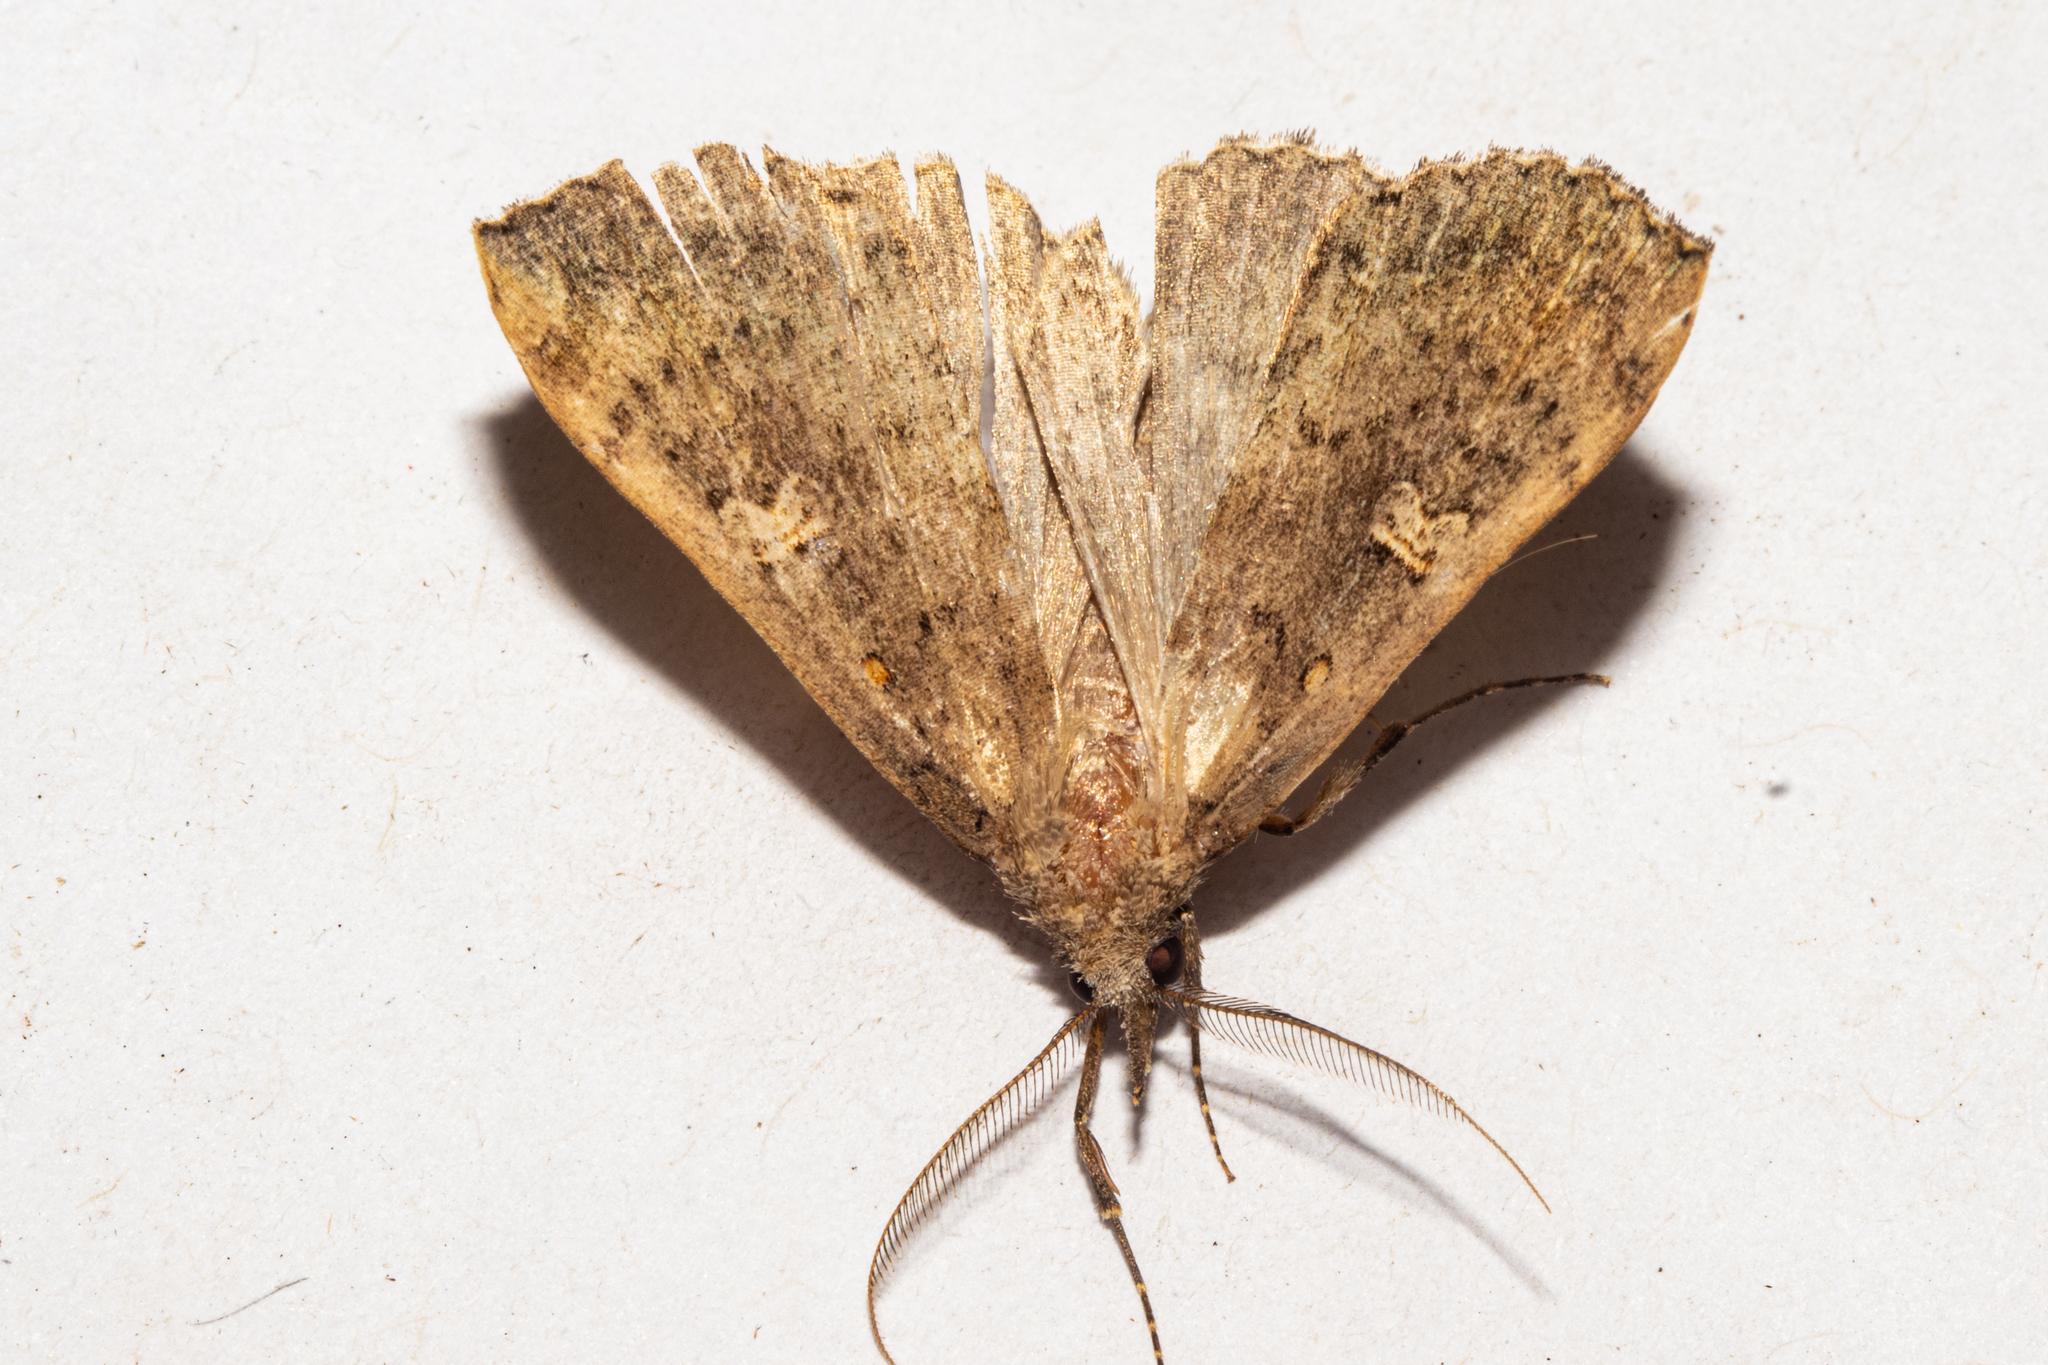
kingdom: Animalia
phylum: Arthropoda
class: Insecta
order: Lepidoptera
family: Erebidae
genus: Rhapsa
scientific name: Rhapsa scotosialis
